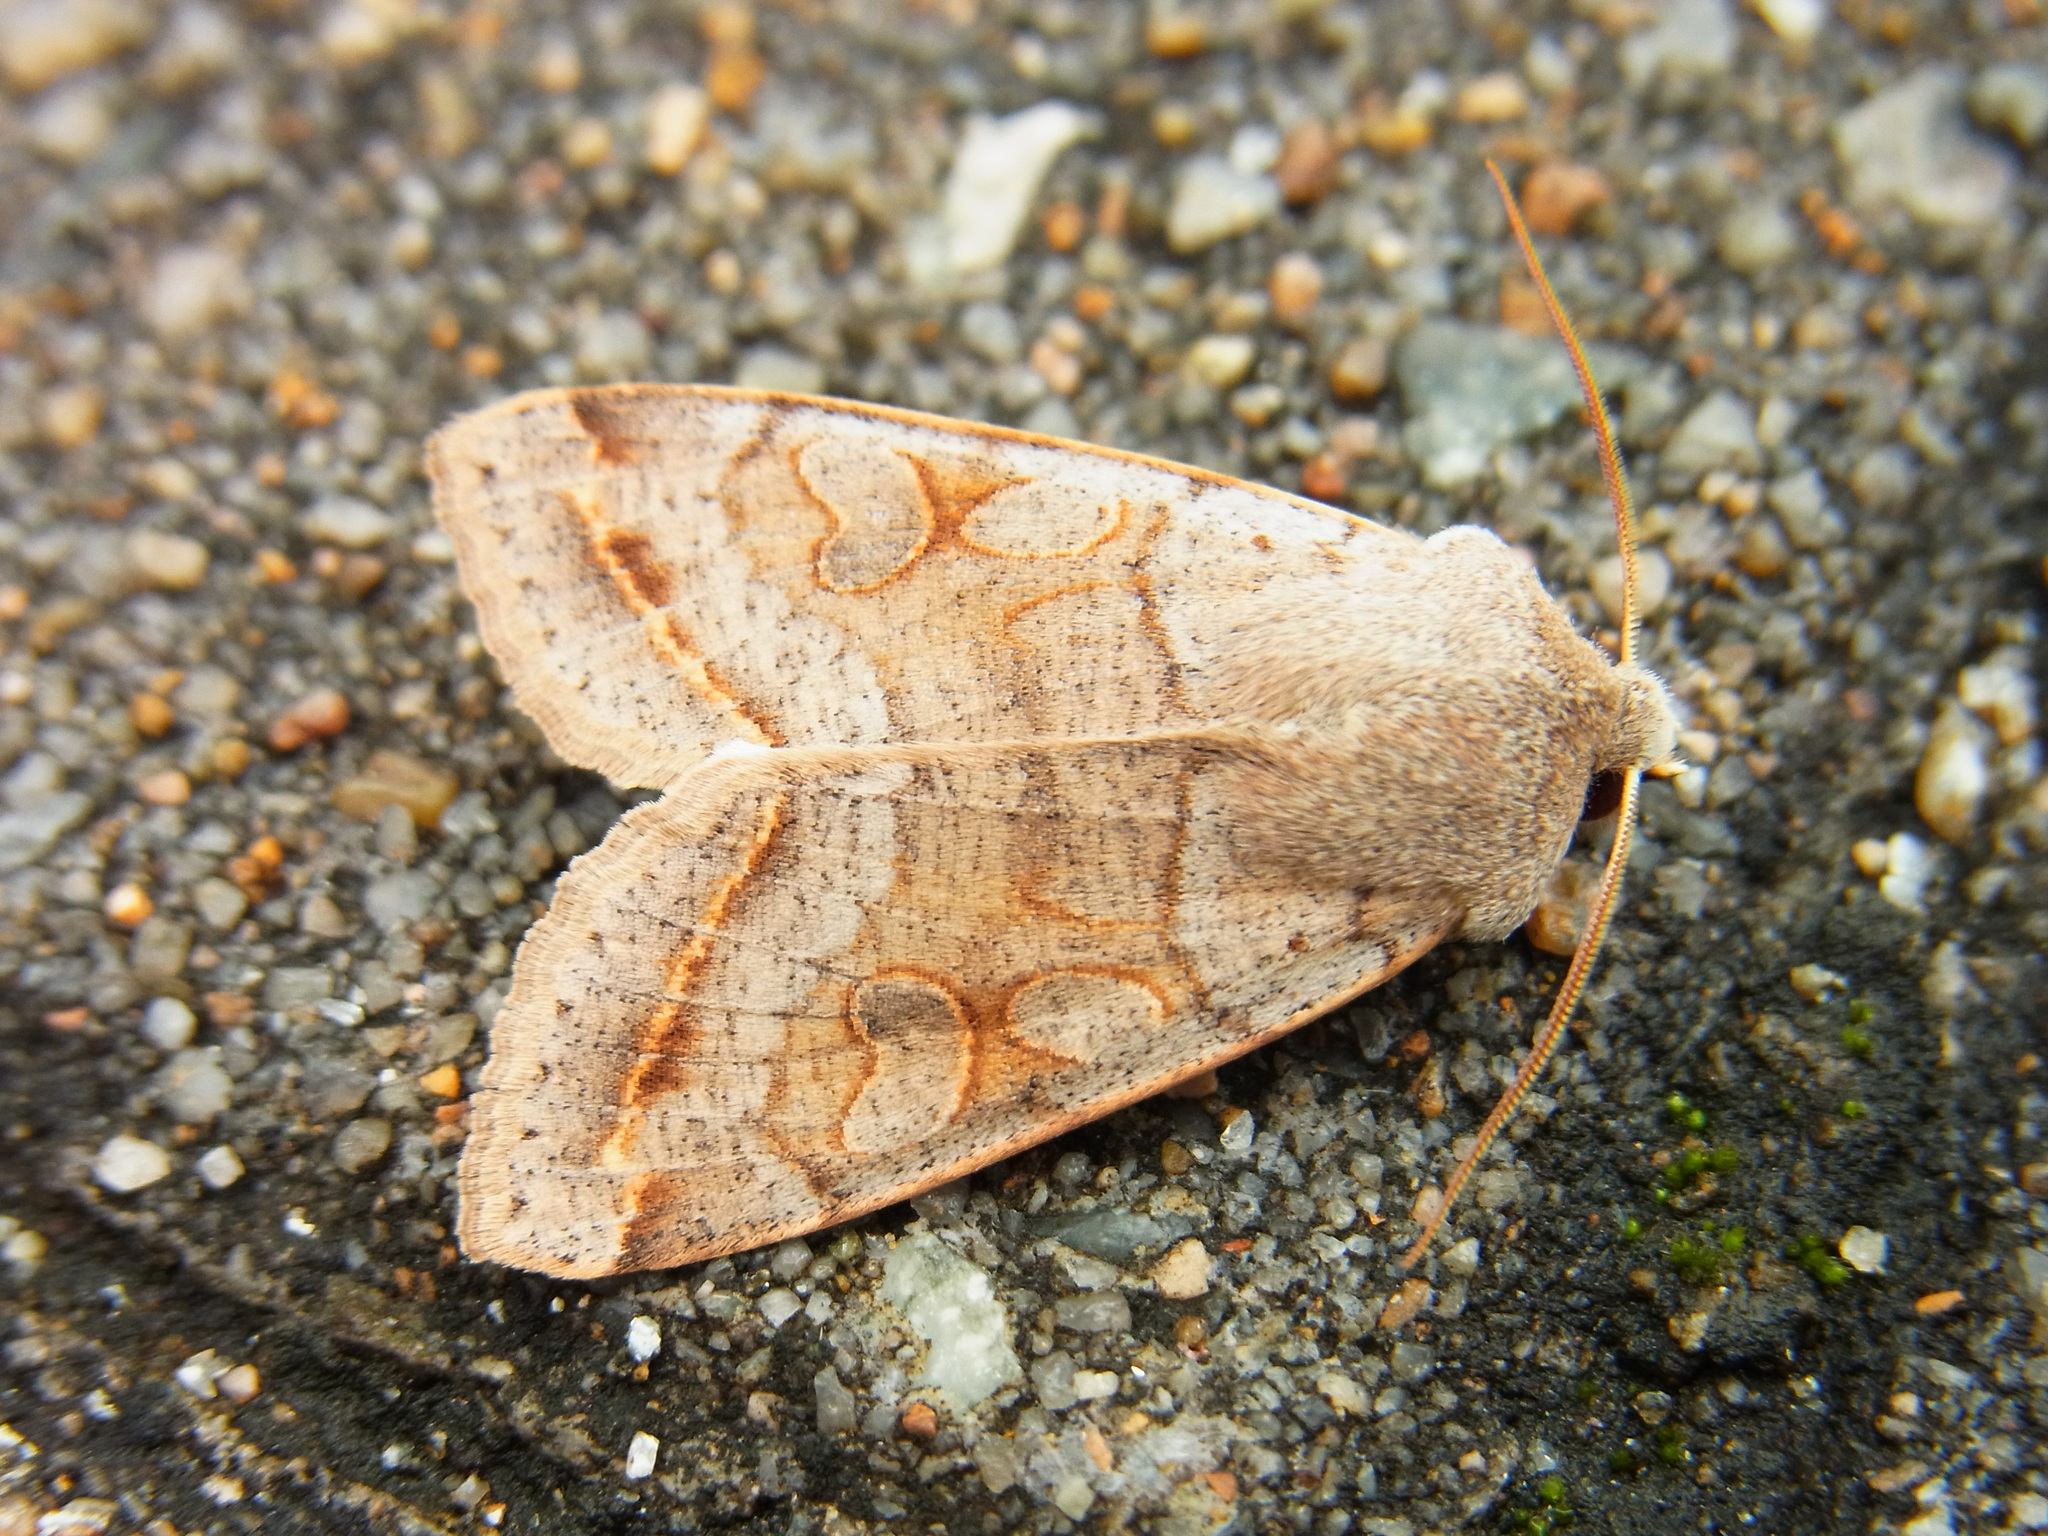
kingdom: Animalia
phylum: Arthropoda
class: Insecta
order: Lepidoptera
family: Noctuidae
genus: Orthosia
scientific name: Orthosia evanida
